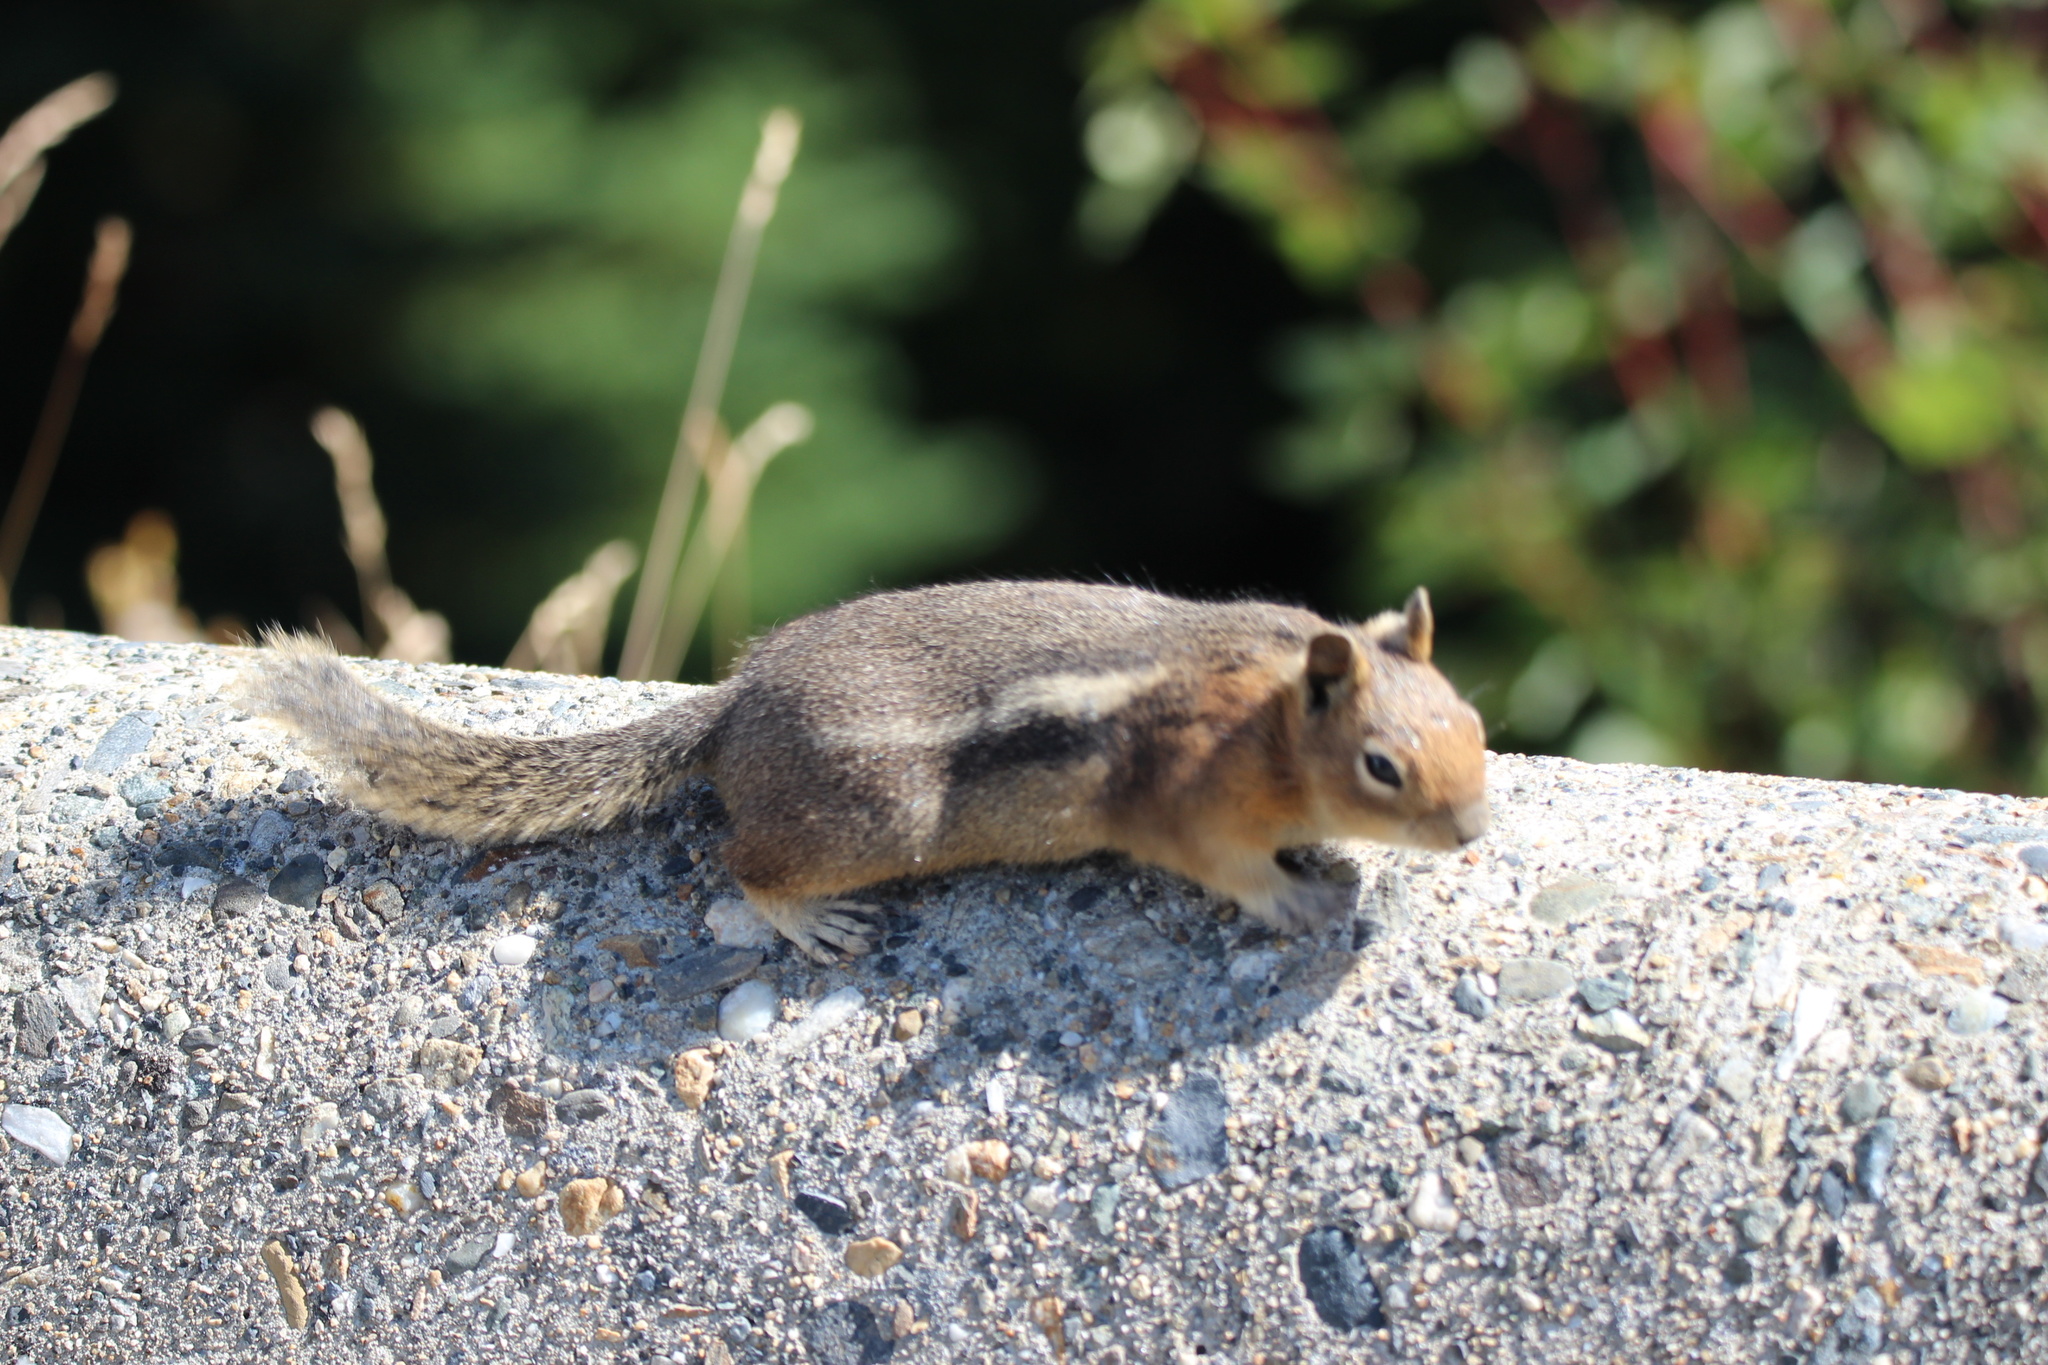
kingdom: Animalia
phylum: Chordata
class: Mammalia
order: Rodentia
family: Sciuridae
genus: Callospermophilus
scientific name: Callospermophilus saturatus
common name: Cascade golden-mantled ground squirrel
